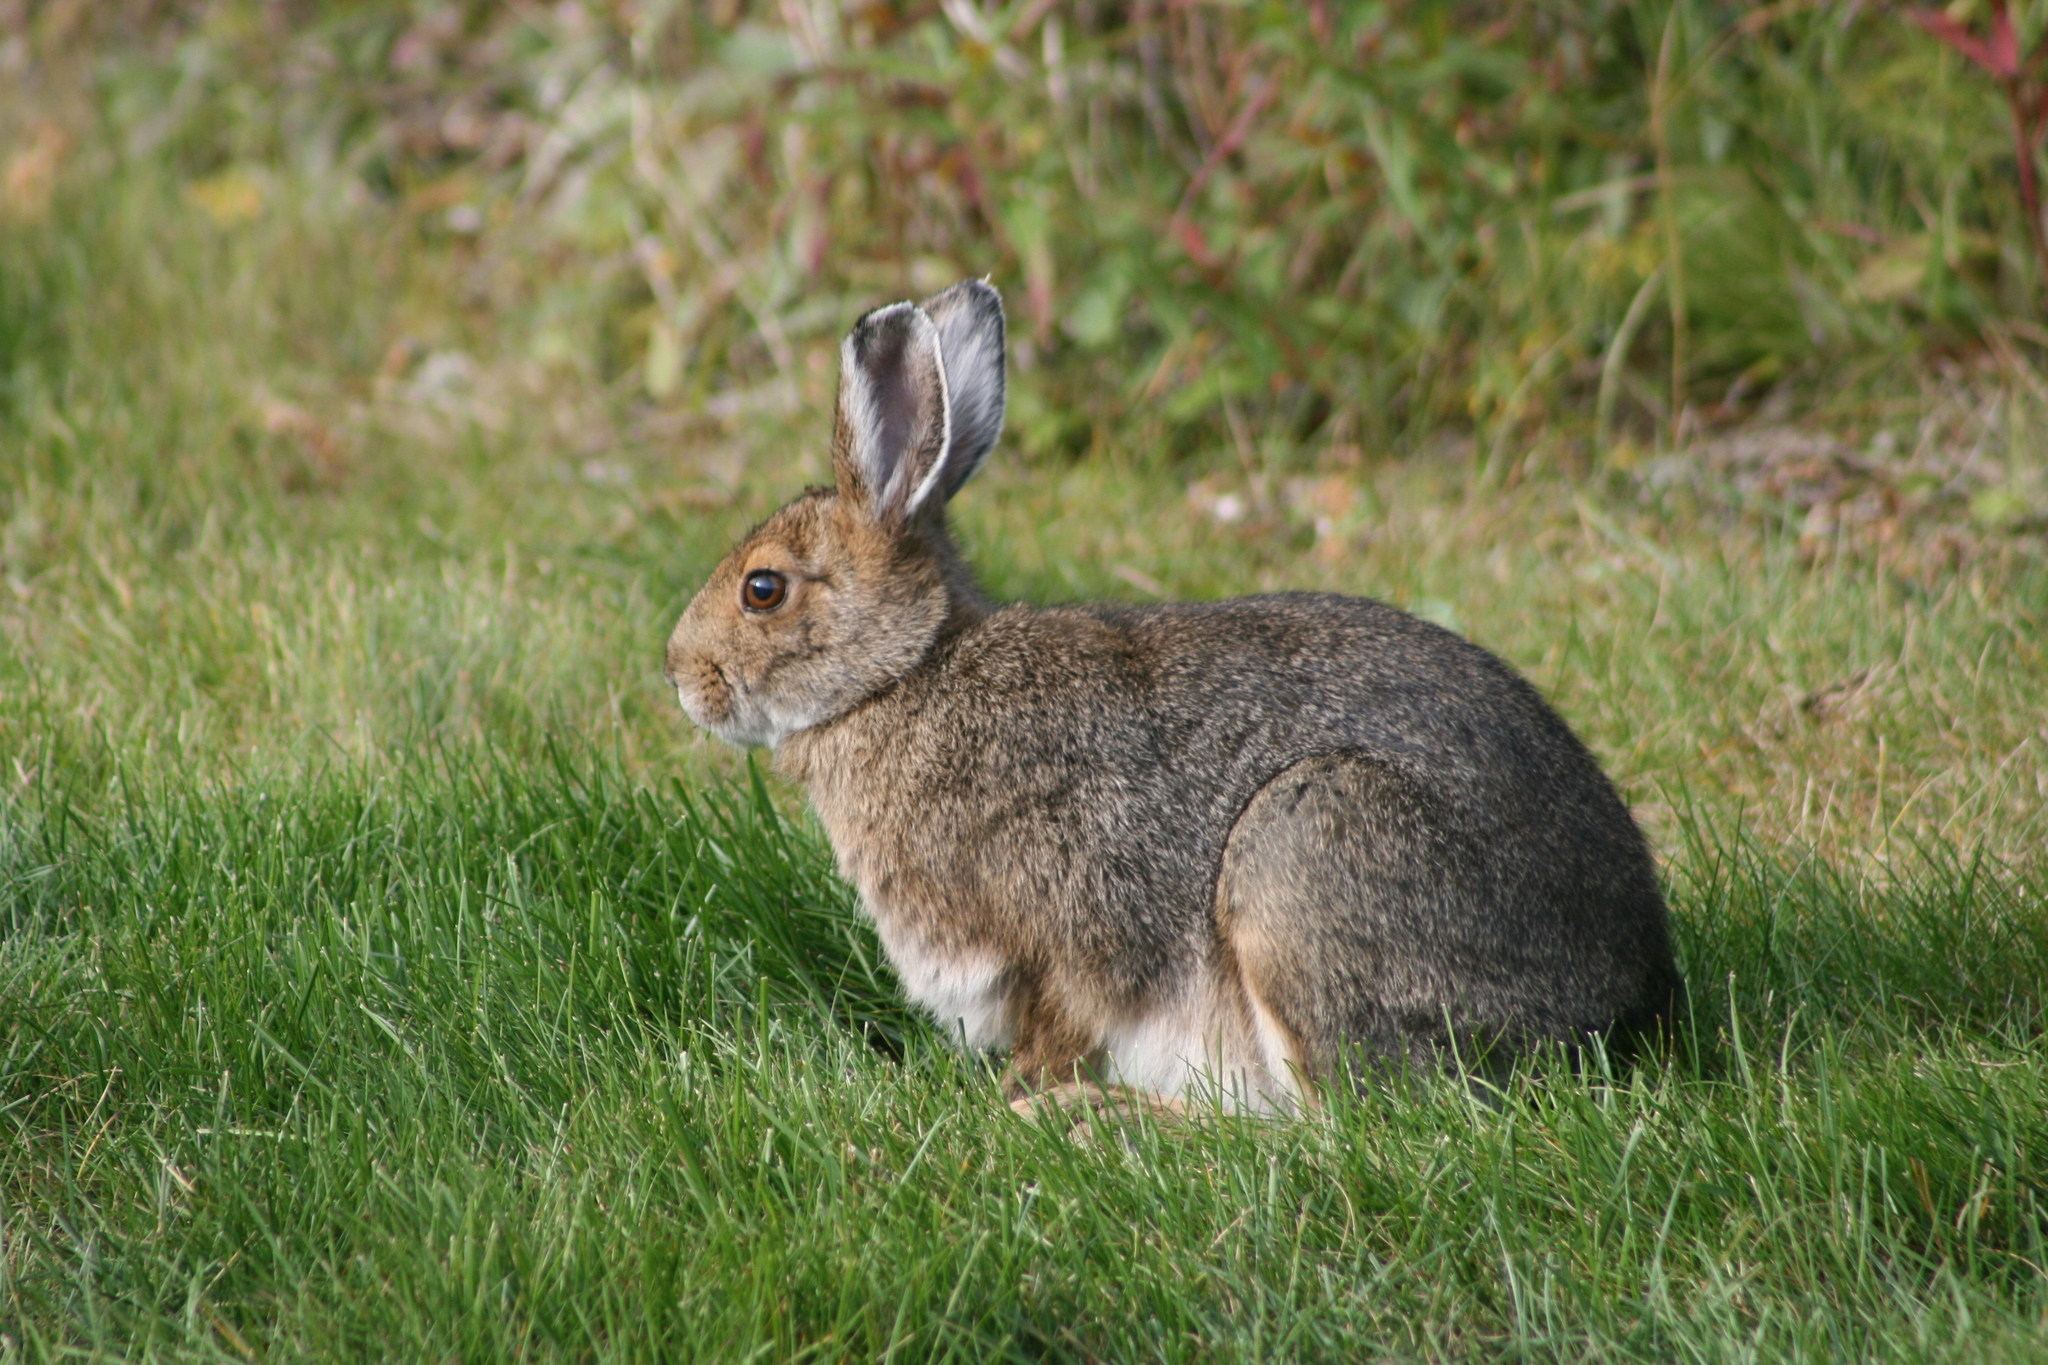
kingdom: Animalia
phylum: Chordata
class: Mammalia
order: Lagomorpha
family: Leporidae
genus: Lepus
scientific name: Lepus americanus
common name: Snowshoe hare
